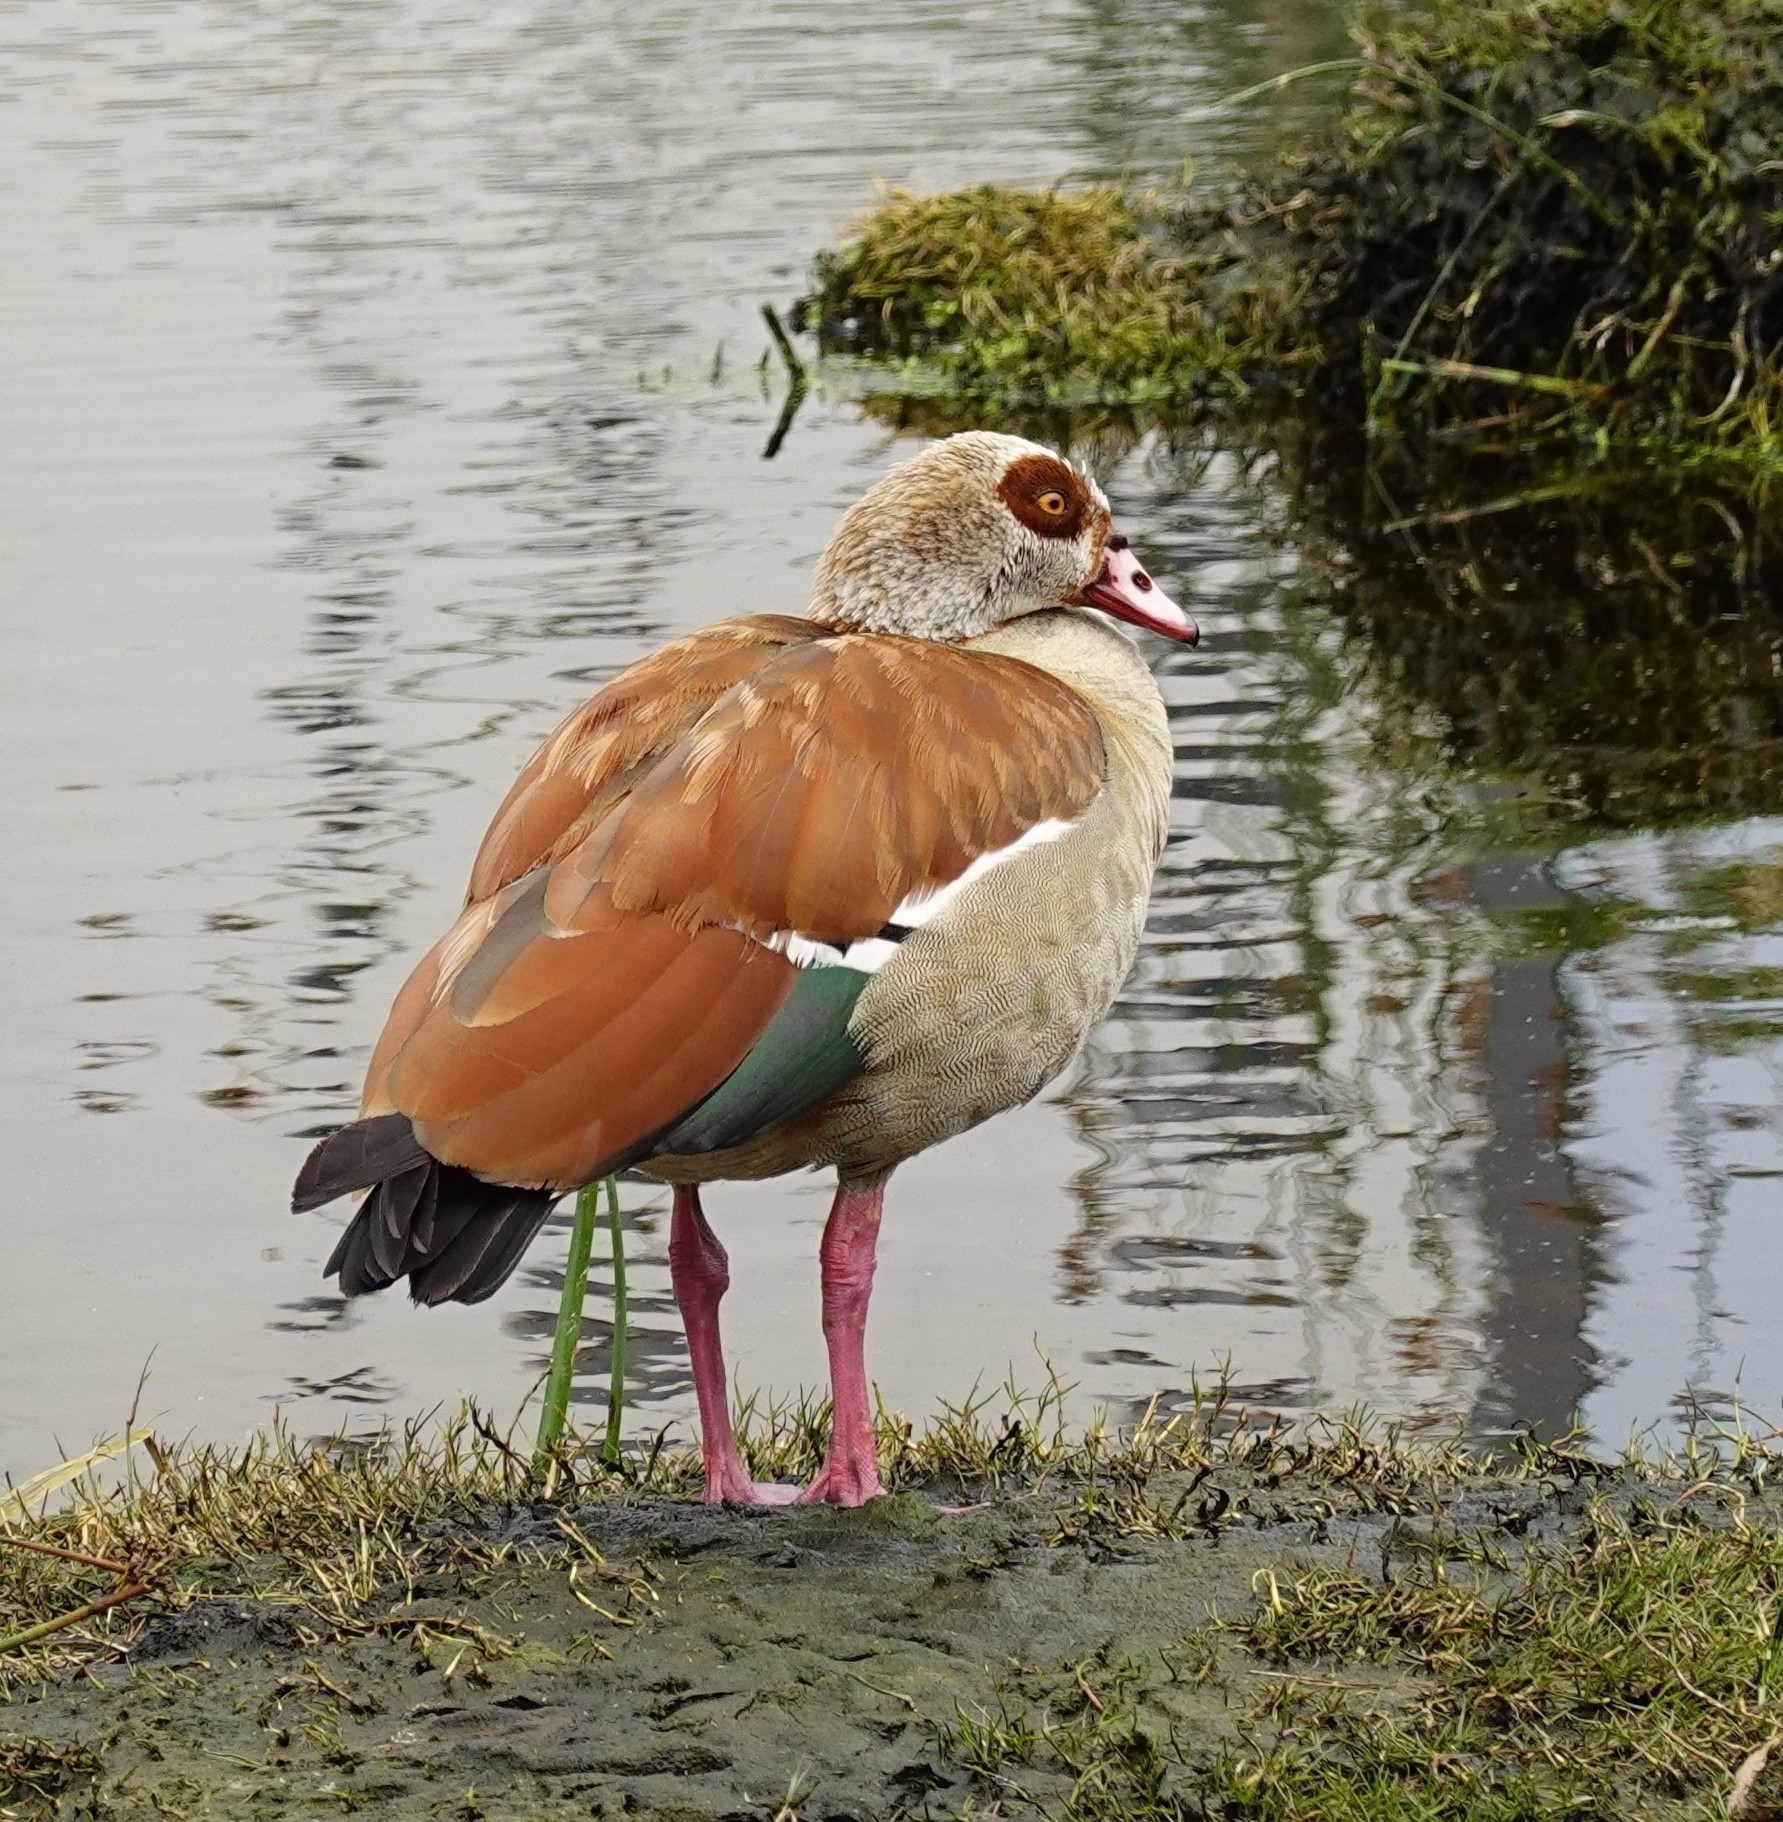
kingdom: Animalia
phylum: Chordata
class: Aves
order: Anseriformes
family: Anatidae
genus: Alopochen
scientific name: Alopochen aegyptiaca
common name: Egyptian goose
